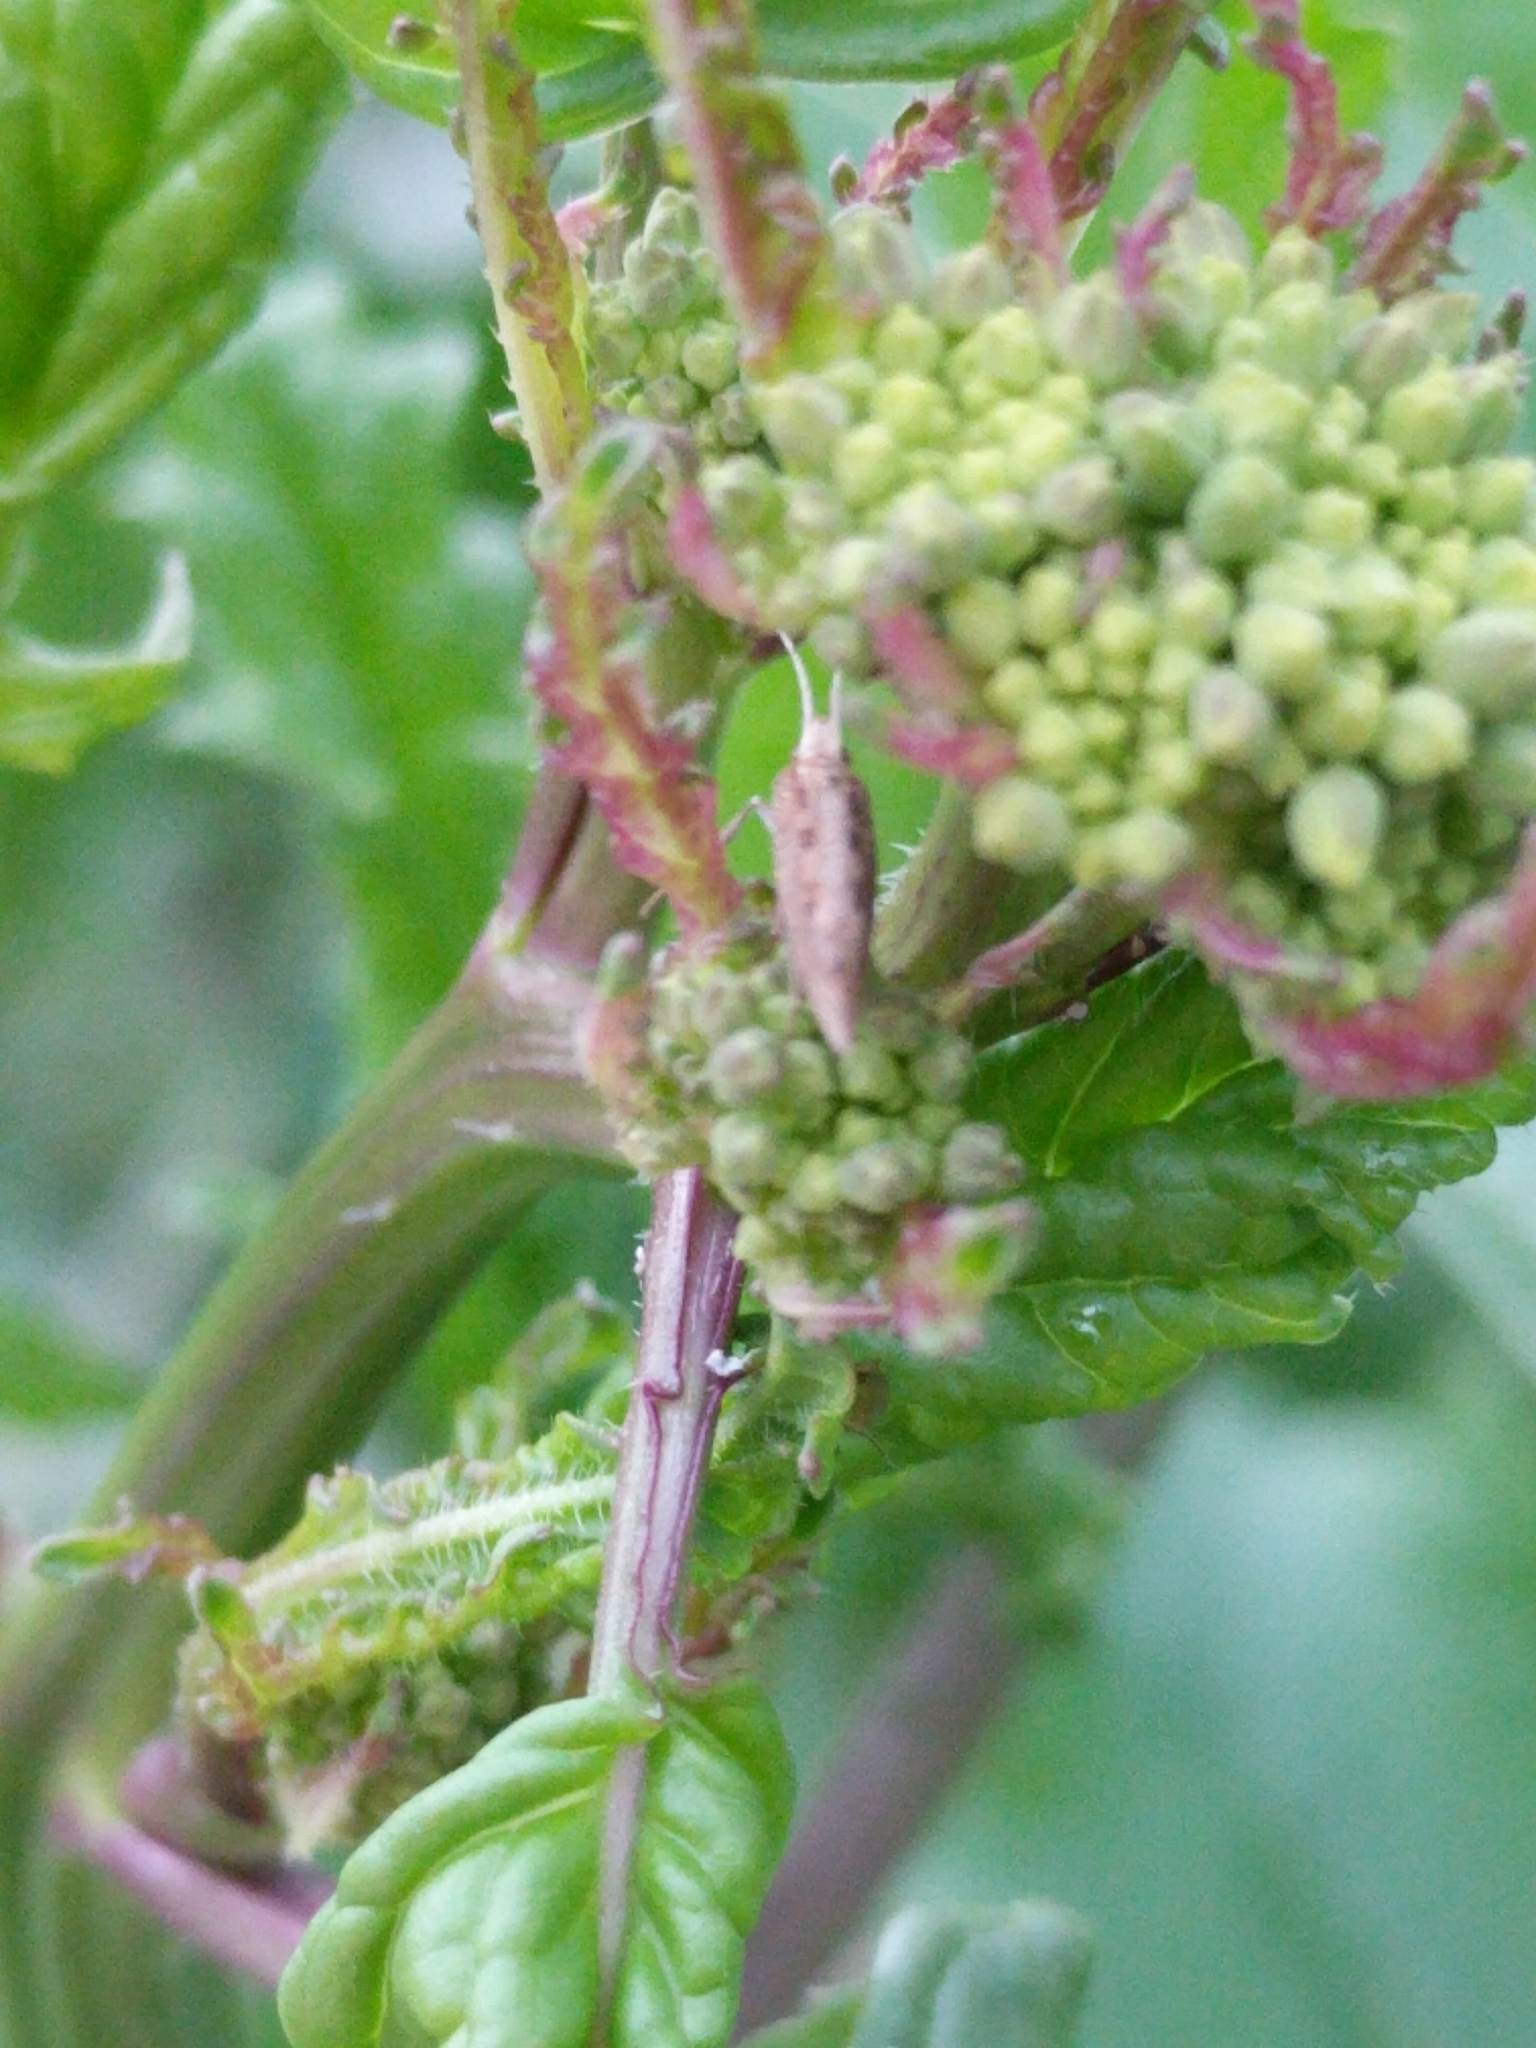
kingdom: Animalia
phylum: Arthropoda
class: Insecta
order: Lepidoptera
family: Plutellidae
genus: Plutella
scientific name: Plutella xylostella
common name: Diamond-back moth
